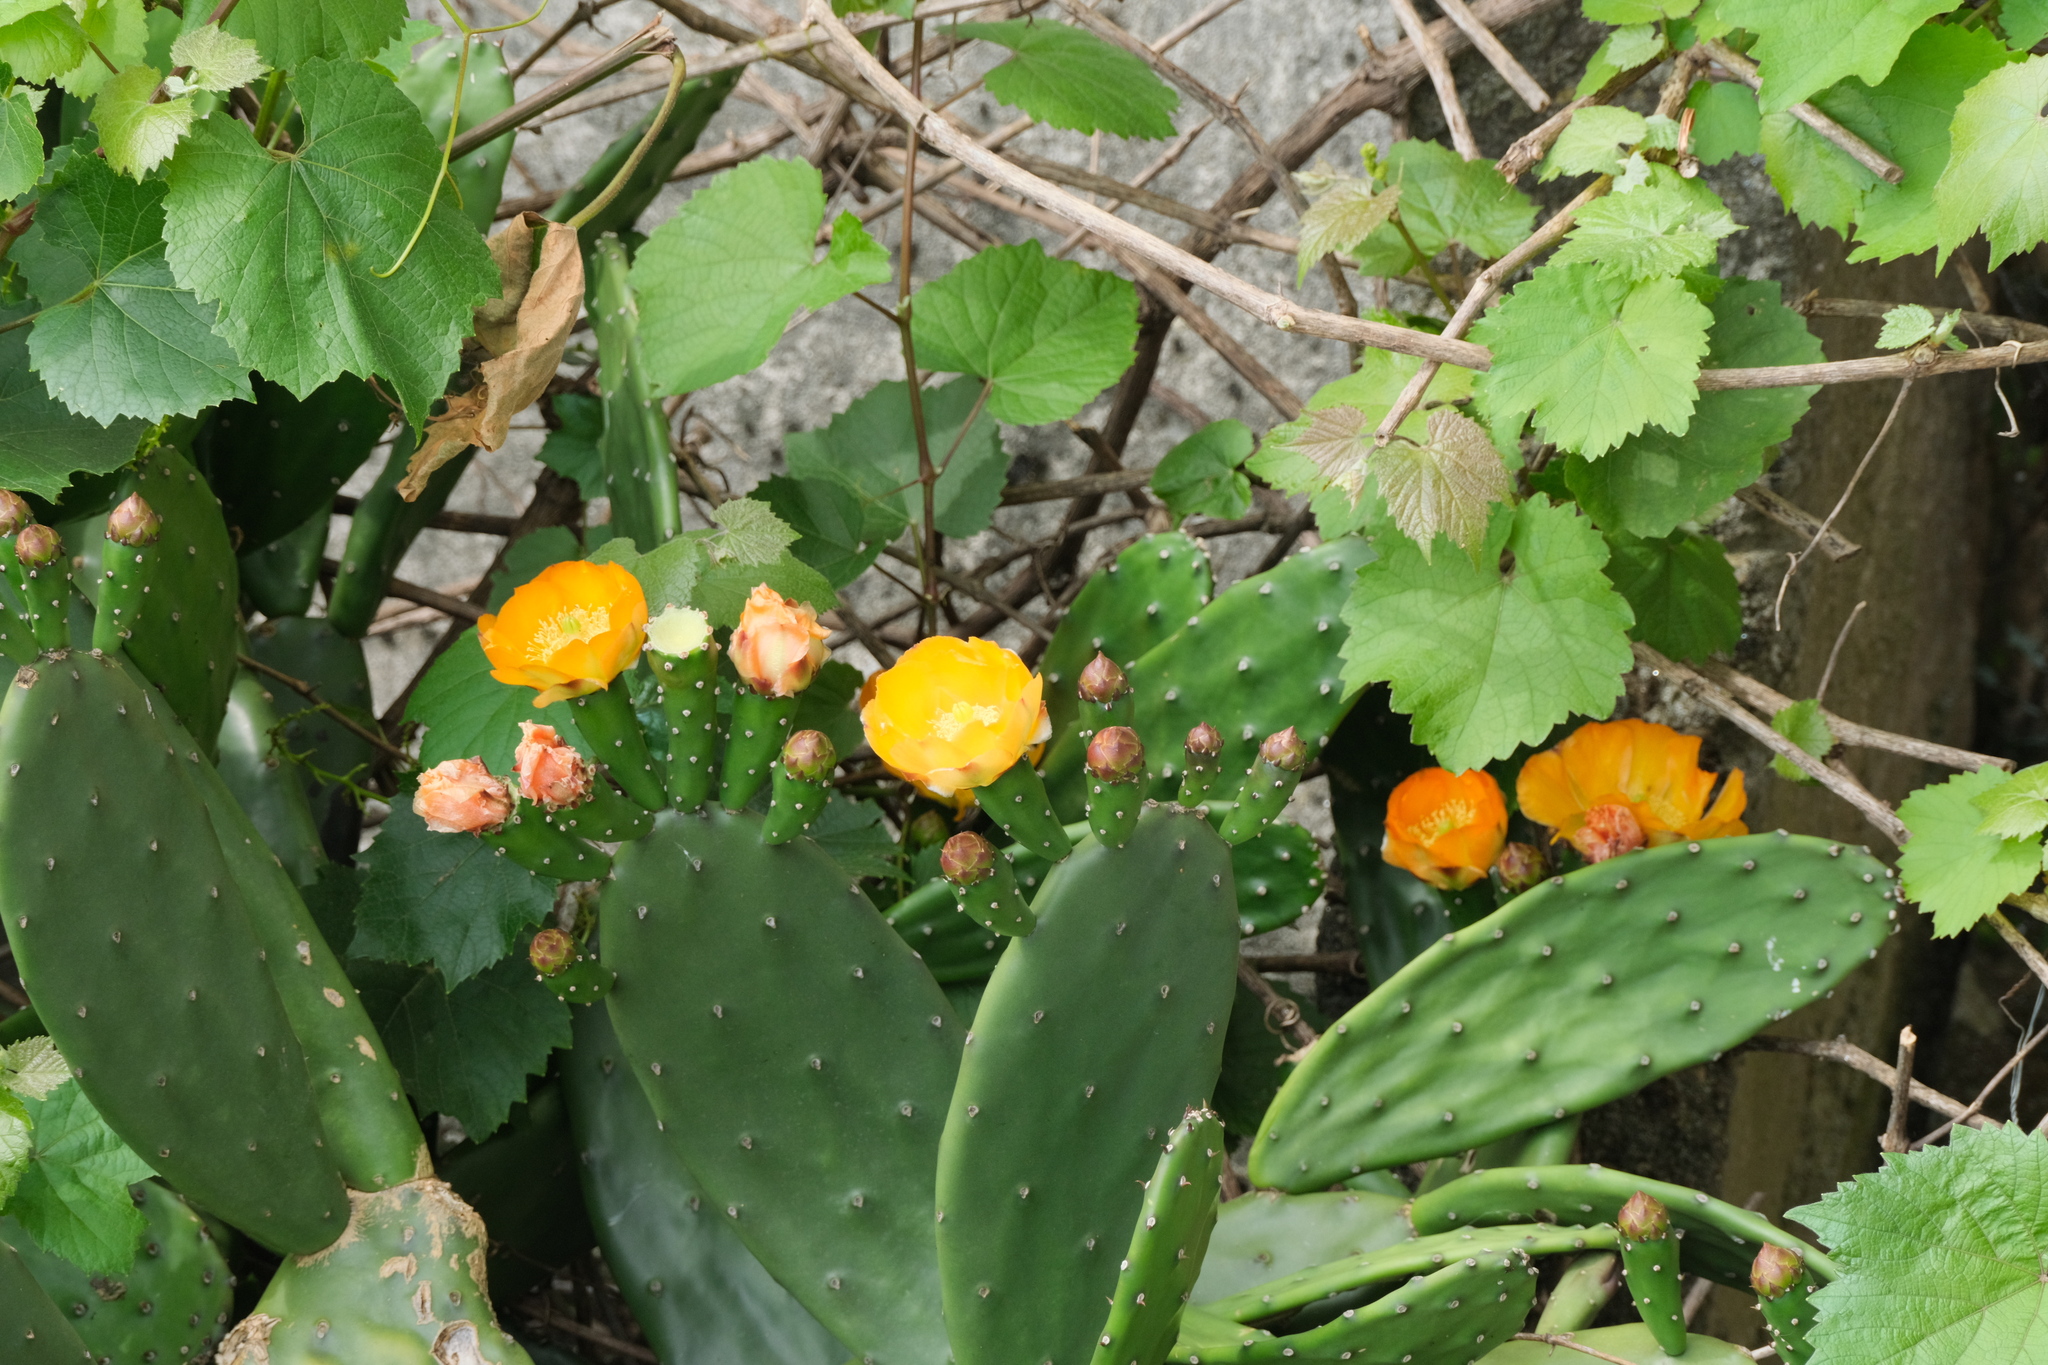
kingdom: Plantae
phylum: Tracheophyta
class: Magnoliopsida
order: Caryophyllales
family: Cactaceae
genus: Opuntia
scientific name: Opuntia elata
